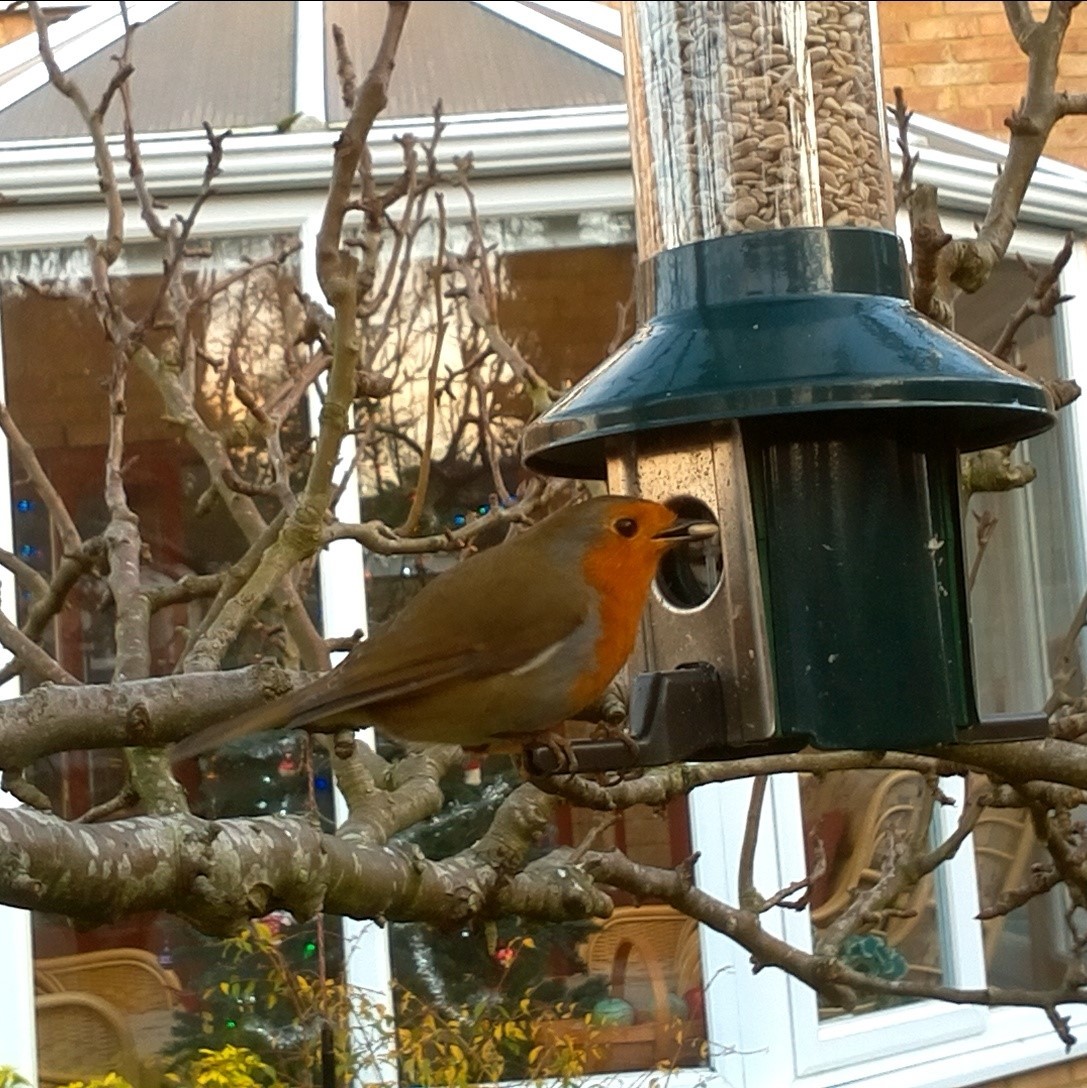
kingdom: Animalia
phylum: Chordata
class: Aves
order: Passeriformes
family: Muscicapidae
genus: Erithacus
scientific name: Erithacus rubecula
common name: European robin
